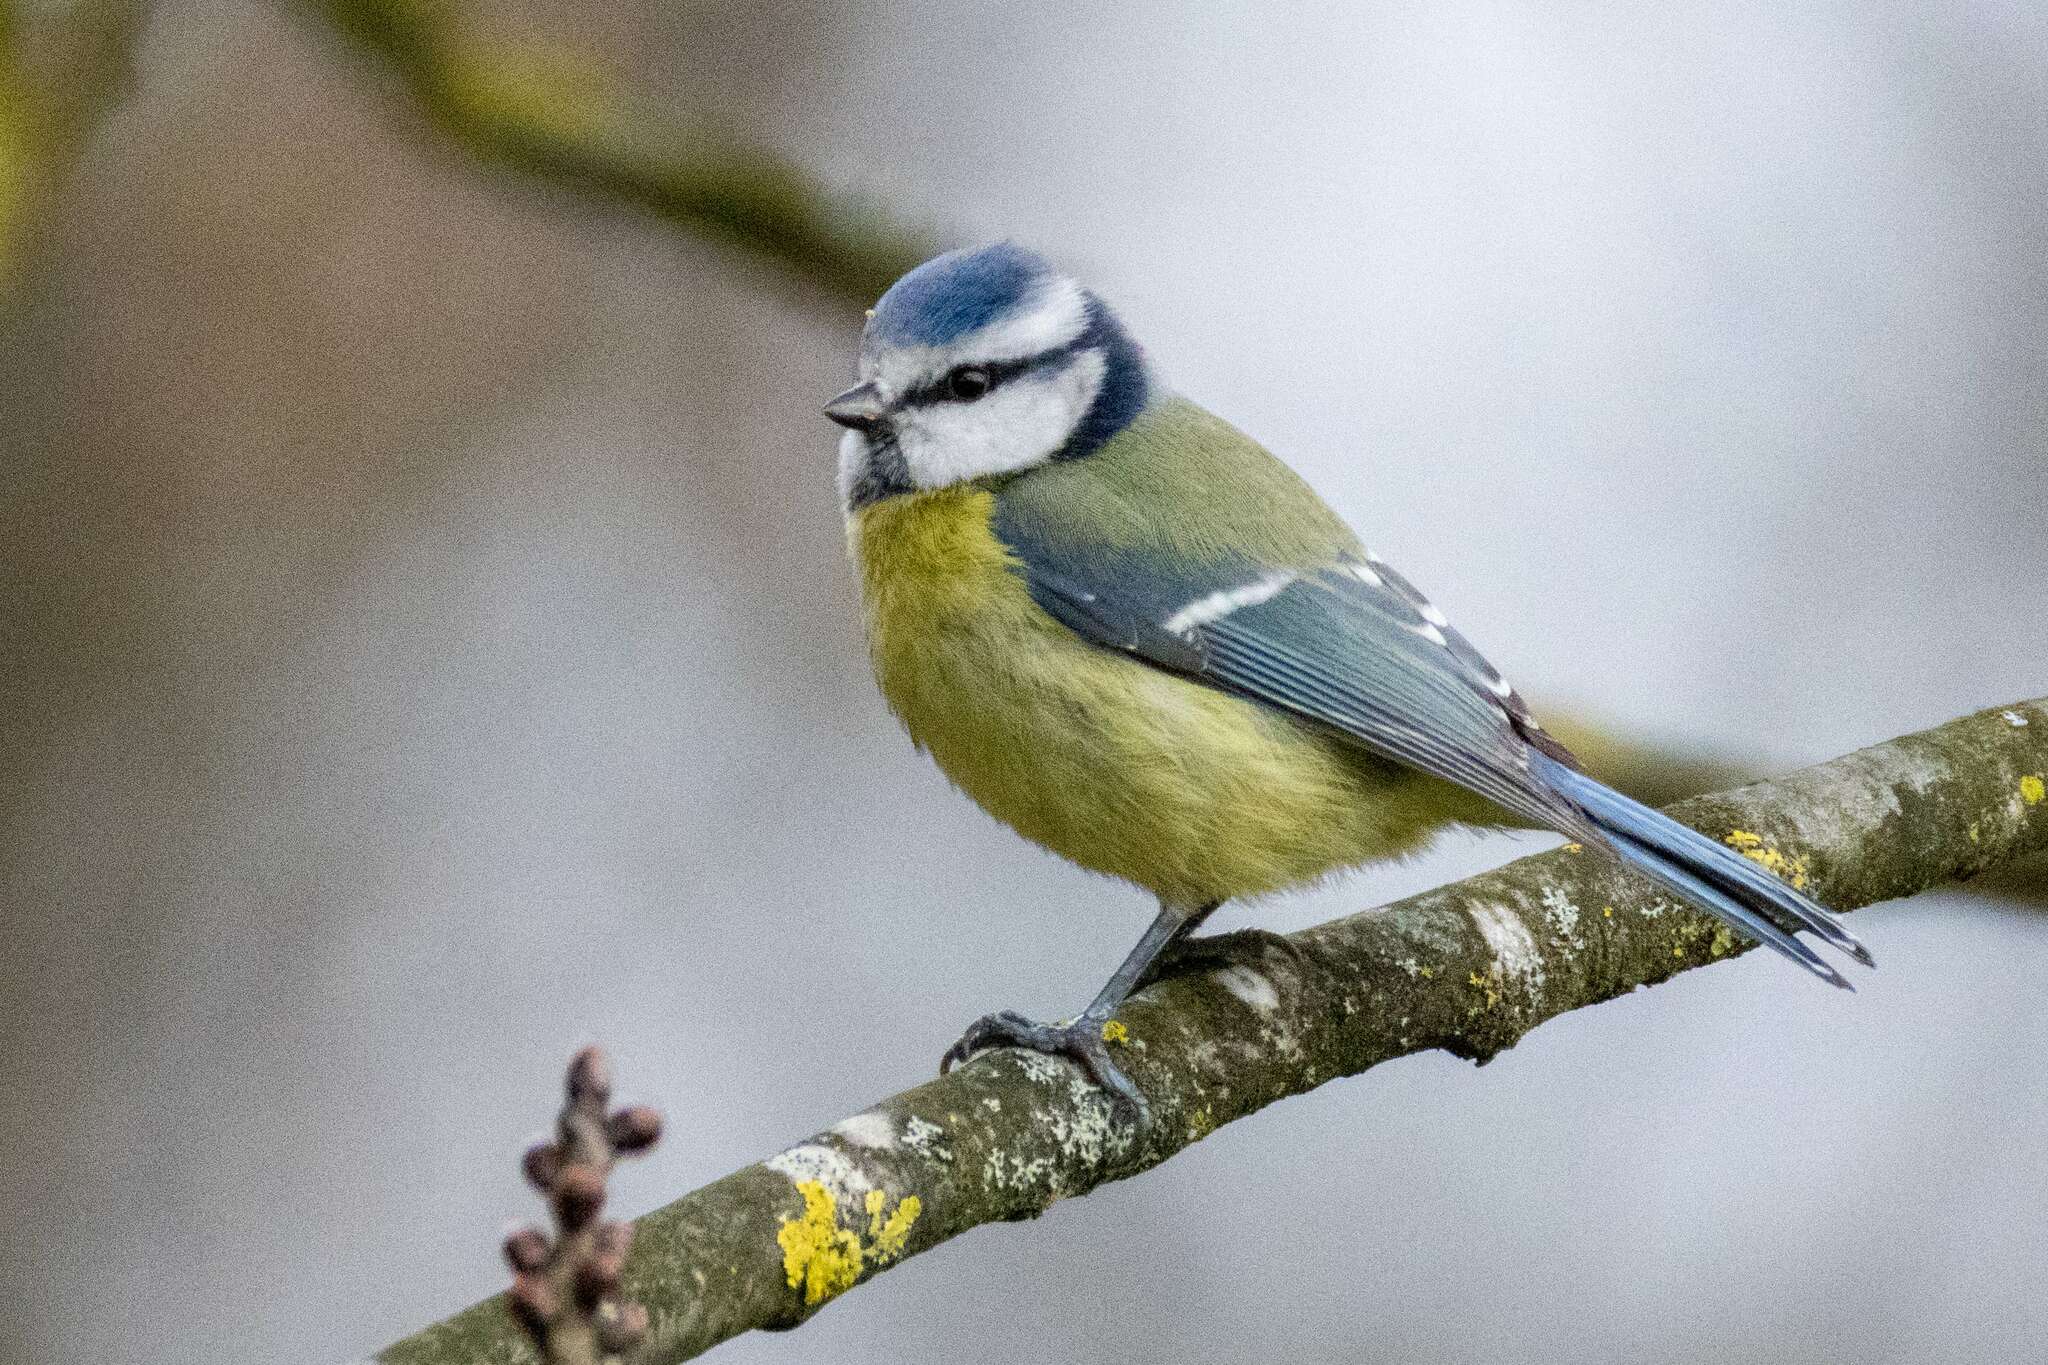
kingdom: Animalia
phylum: Chordata
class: Aves
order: Passeriformes
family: Paridae
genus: Cyanistes
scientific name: Cyanistes caeruleus
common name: Eurasian blue tit
